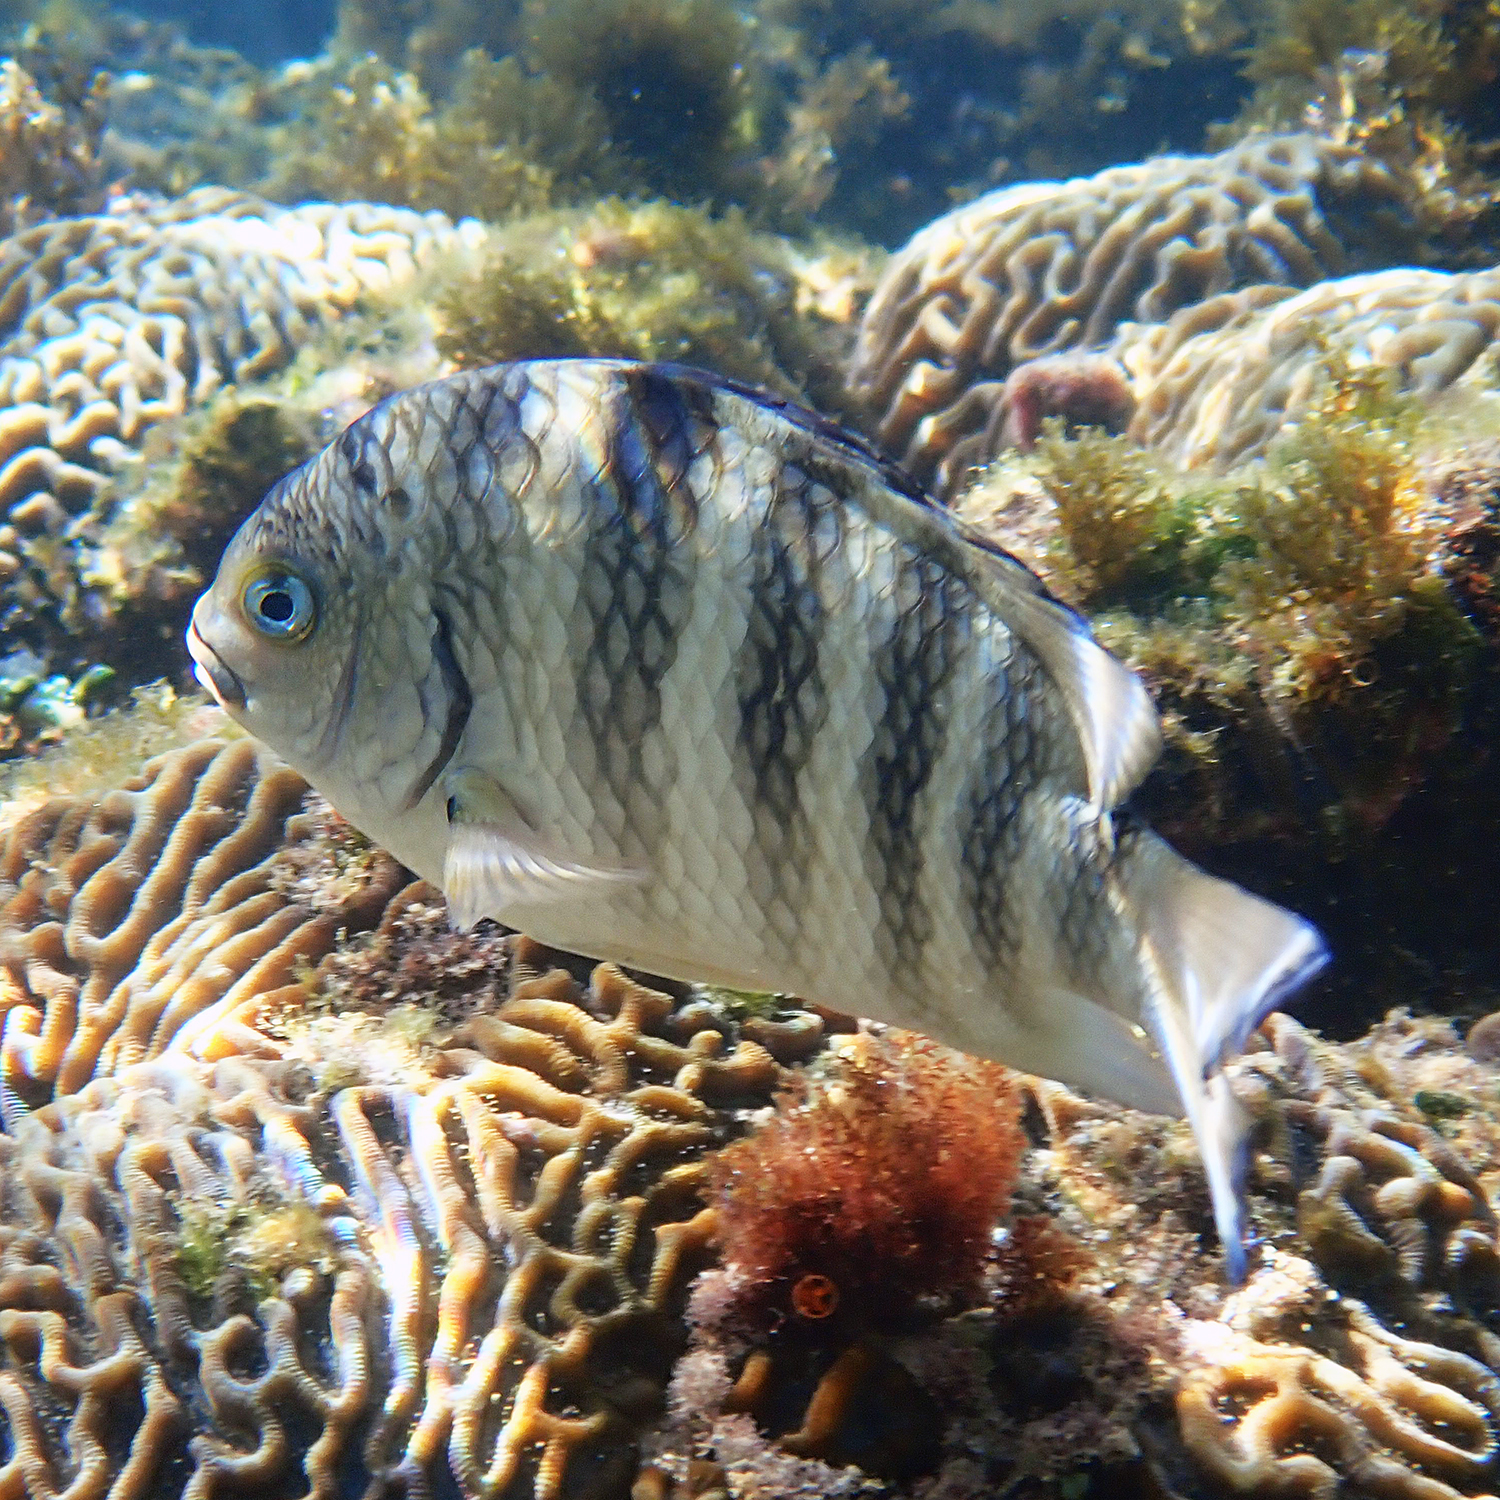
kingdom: Animalia
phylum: Chordata
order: Perciformes
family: Pomacentridae
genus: Abudefduf
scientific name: Abudefduf septemfasciatus
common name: Banded sergeant
